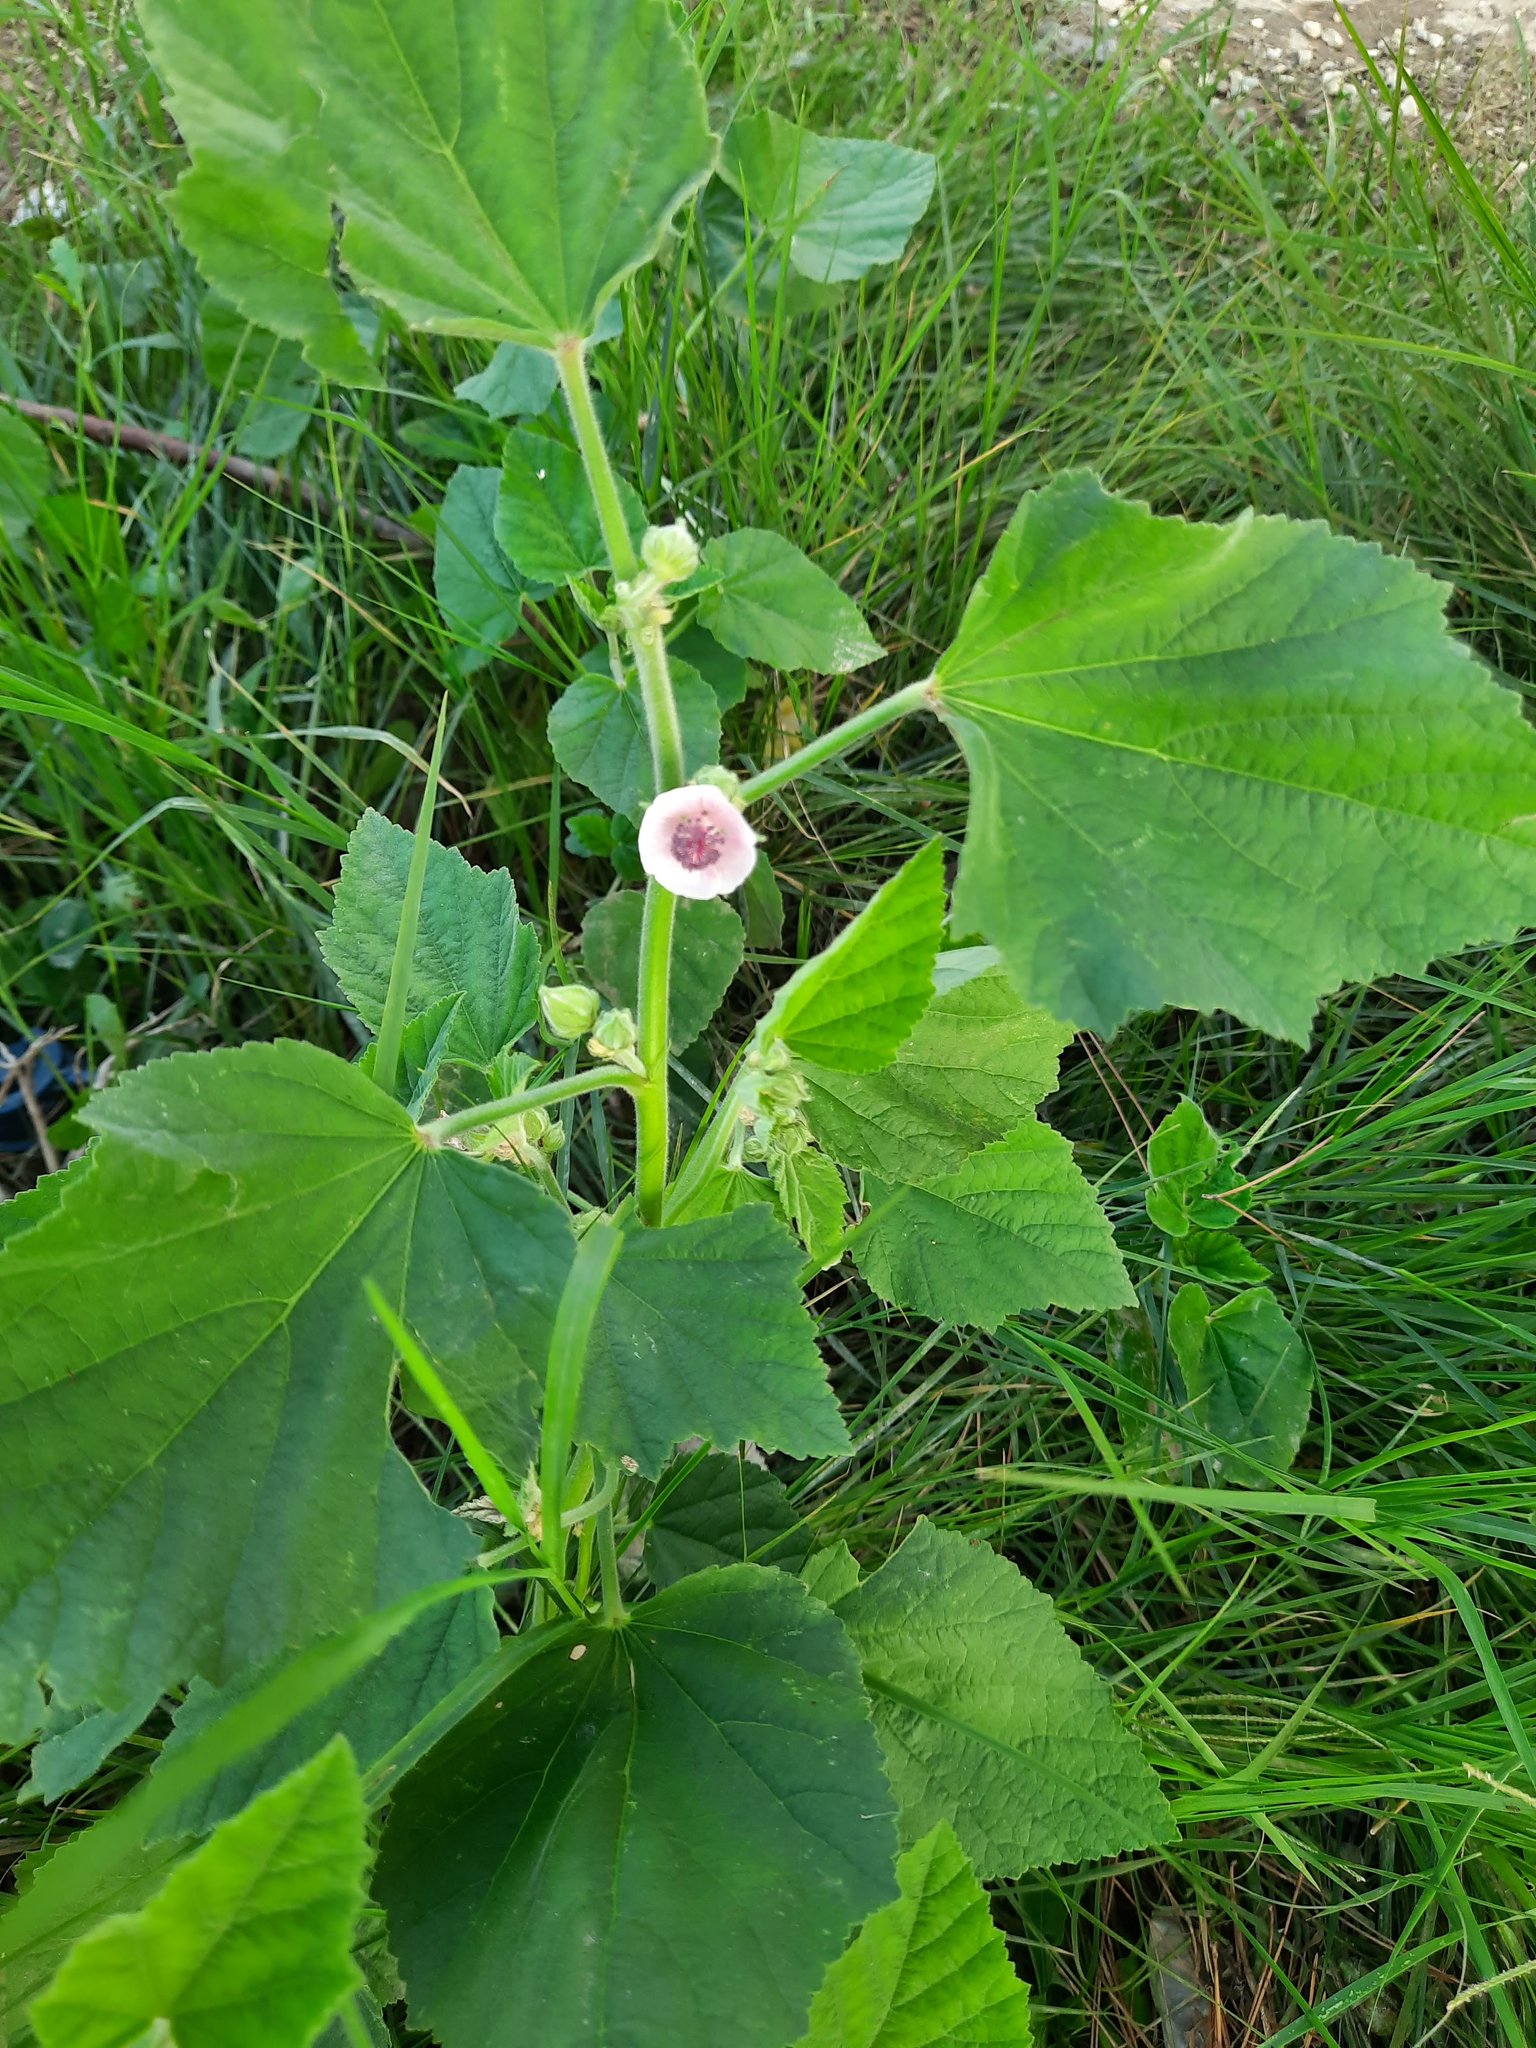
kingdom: Plantae
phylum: Tracheophyta
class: Magnoliopsida
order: Malvales
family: Malvaceae
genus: Althaea
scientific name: Althaea officinalis
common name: Marsh-mallow
